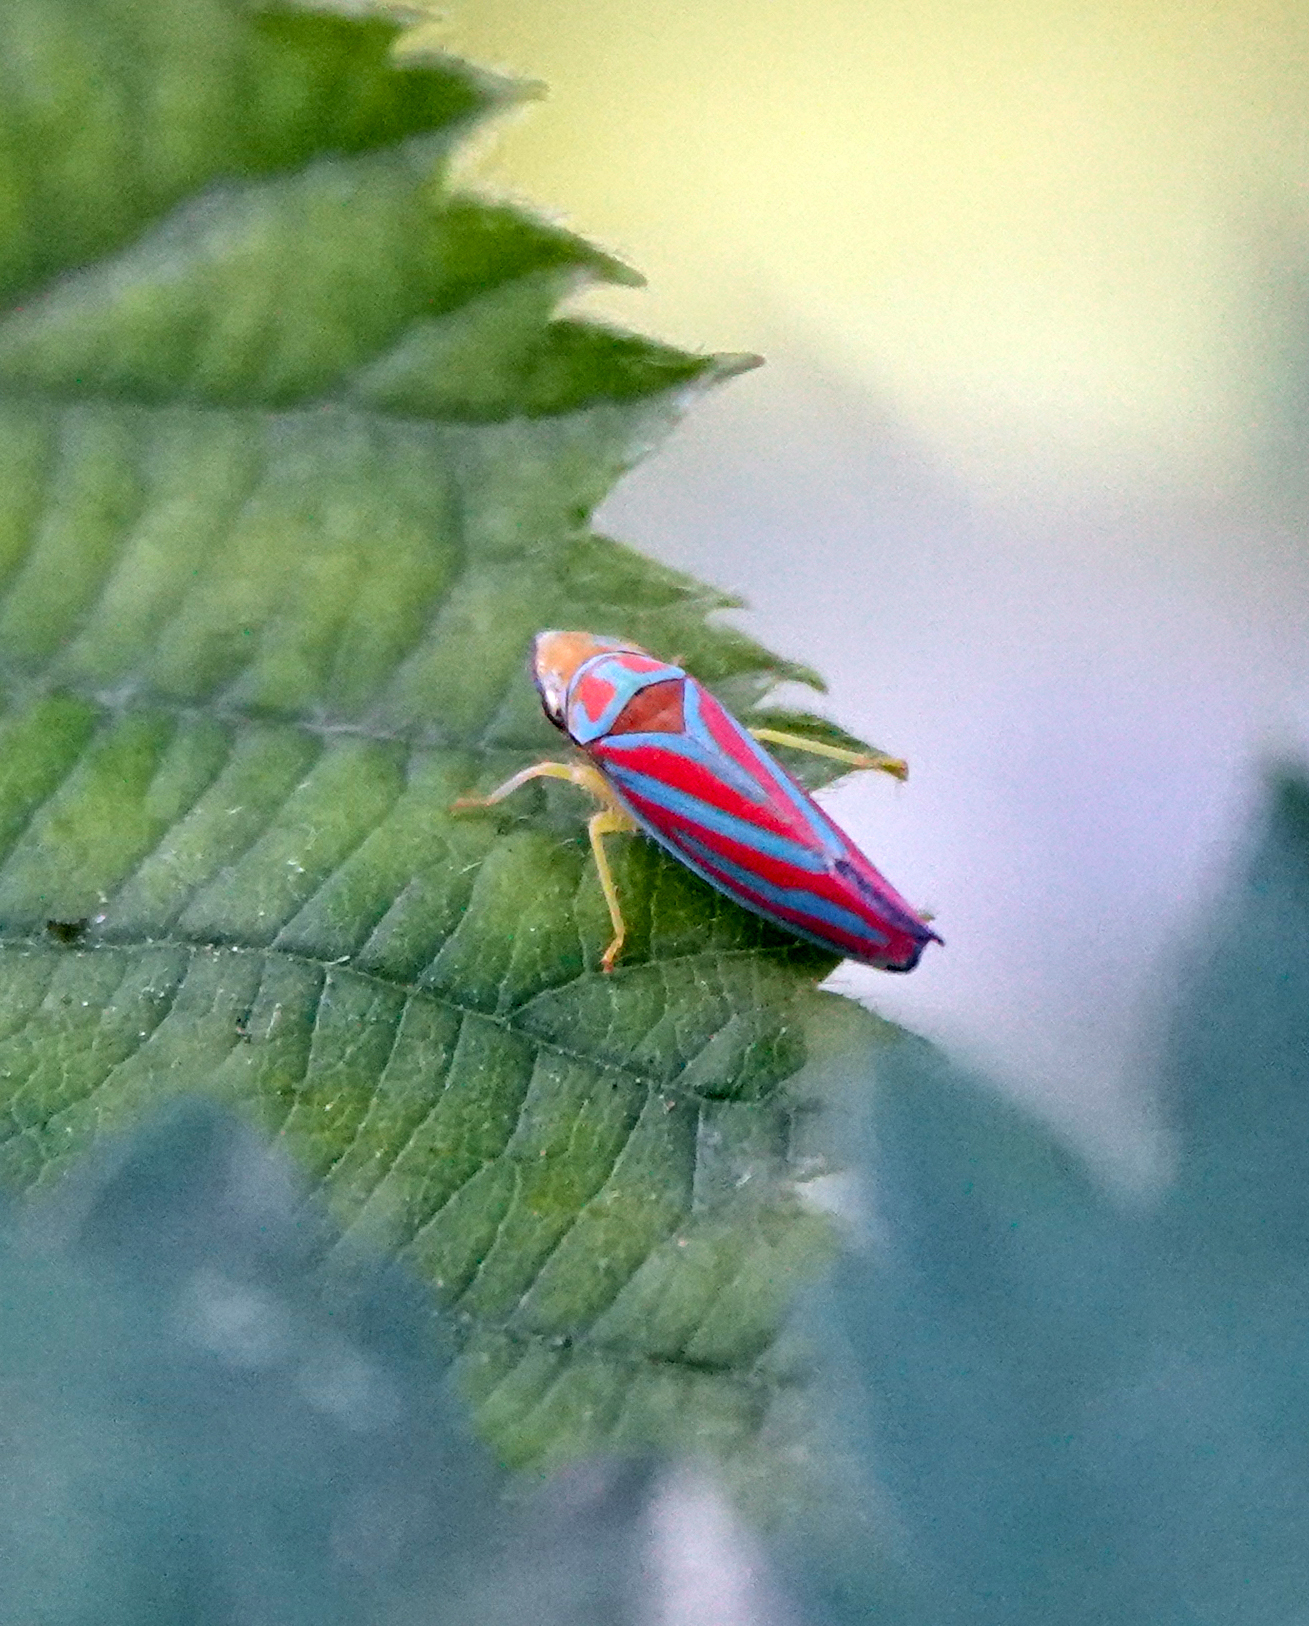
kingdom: Animalia
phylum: Arthropoda
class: Insecta
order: Hemiptera
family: Cicadellidae
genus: Graphocephala
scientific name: Graphocephala coccinea
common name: Candy-striped leafhopper
